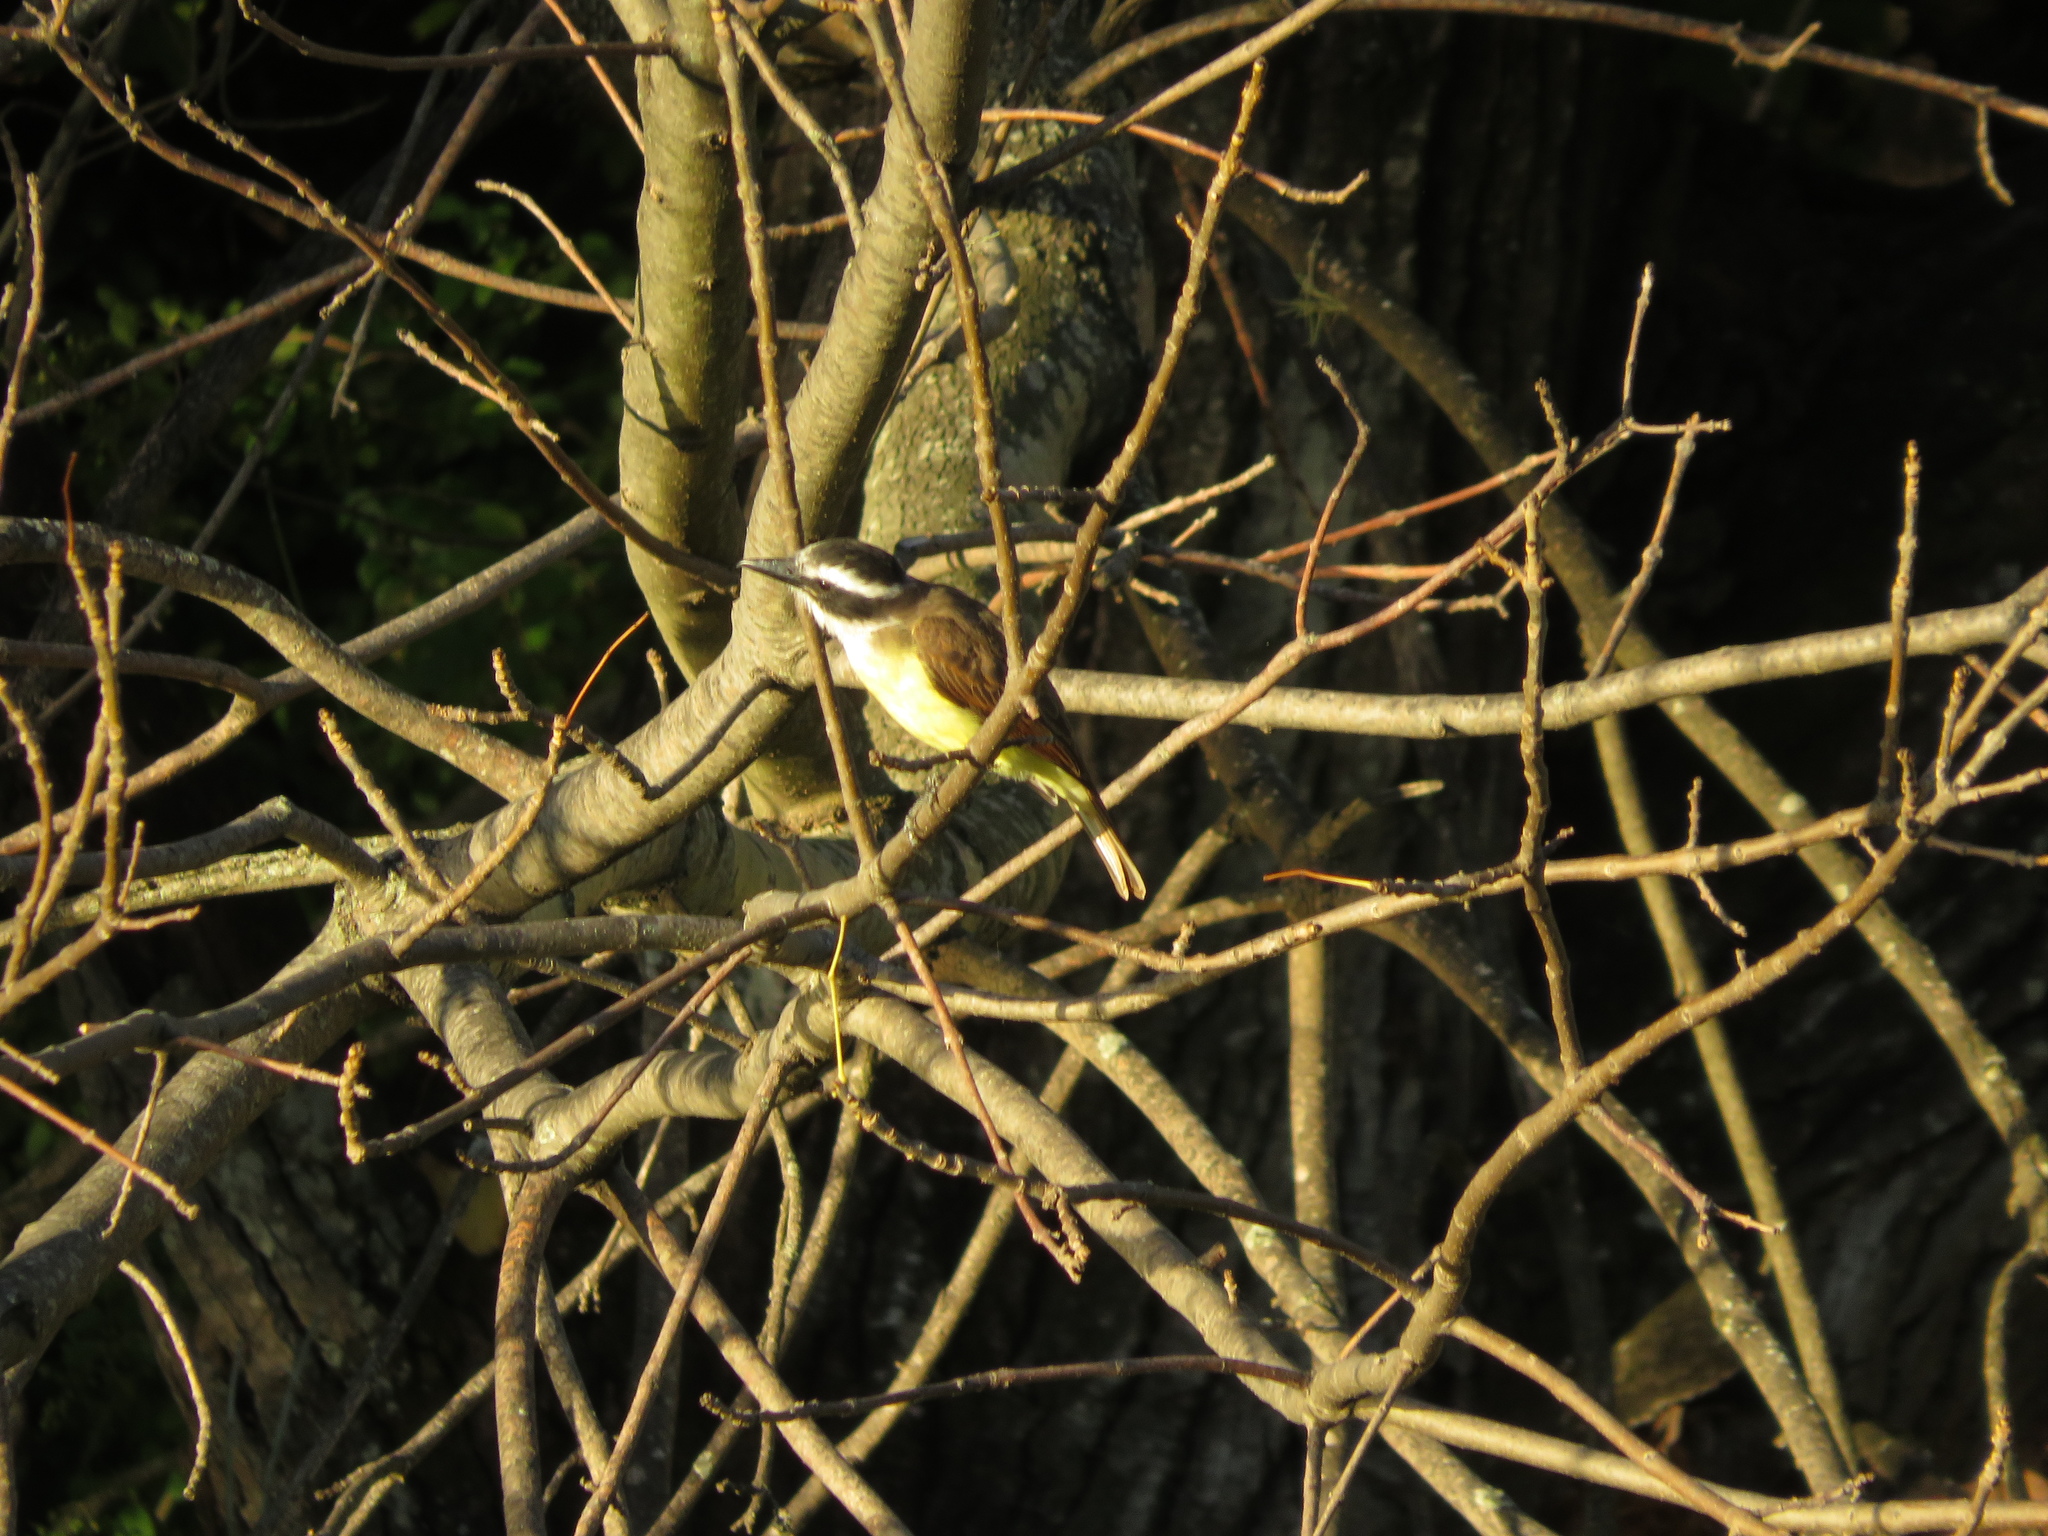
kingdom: Animalia
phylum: Chordata
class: Aves
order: Passeriformes
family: Tyrannidae
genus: Pitangus
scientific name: Pitangus sulphuratus
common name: Great kiskadee
